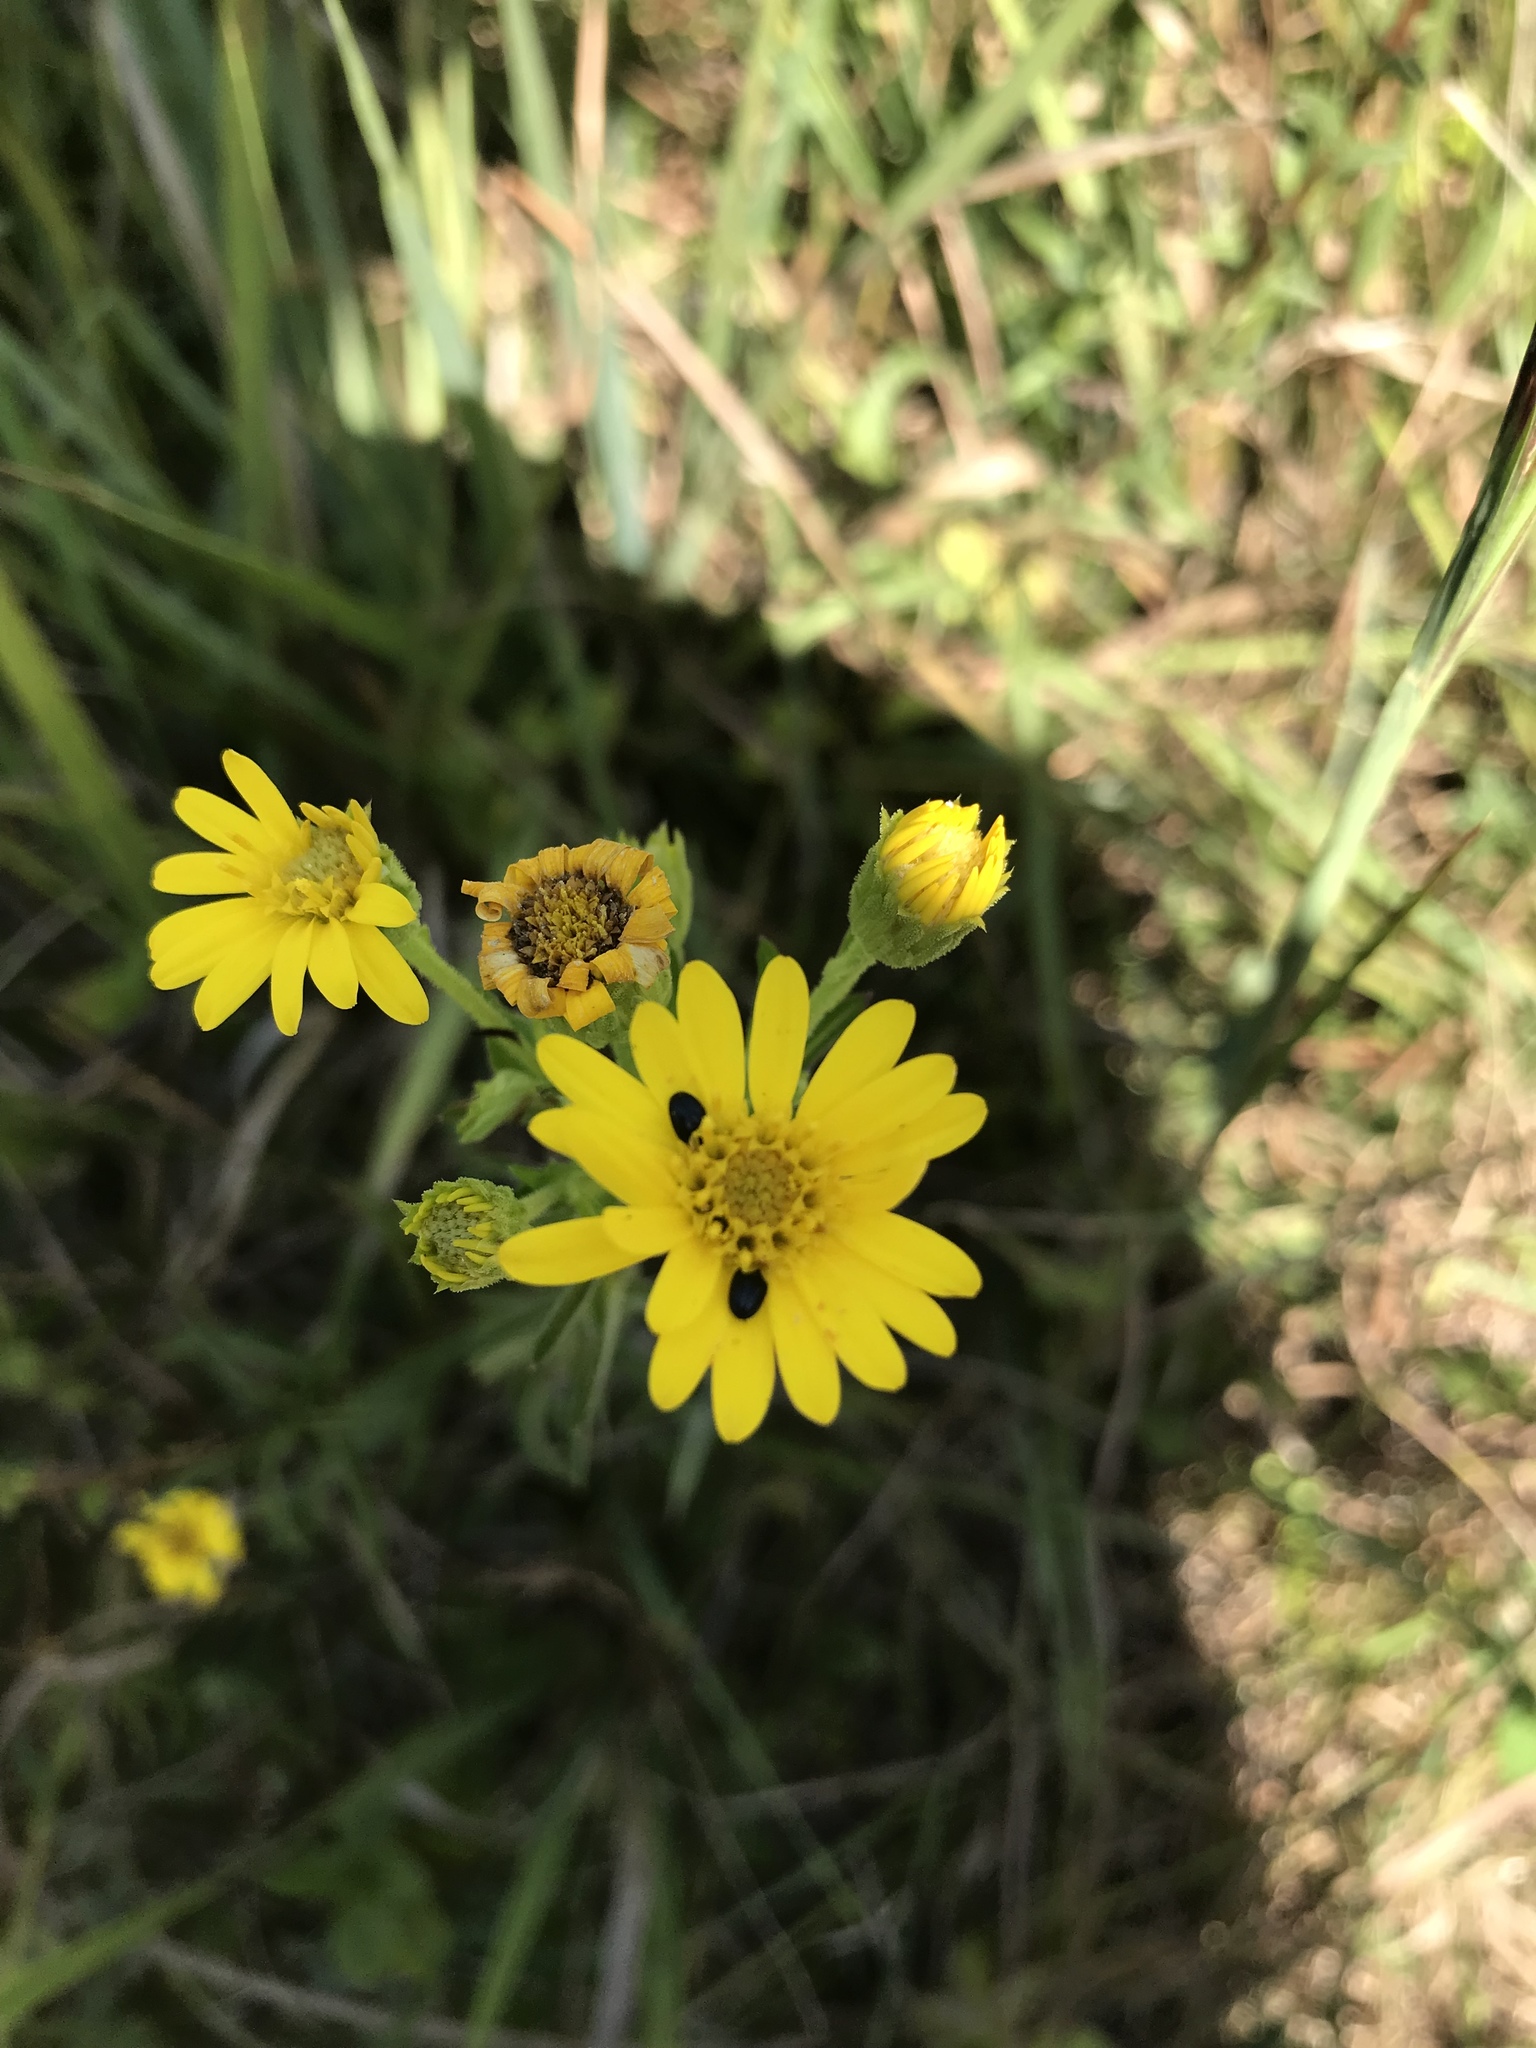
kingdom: Plantae
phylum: Tracheophyta
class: Magnoliopsida
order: Asterales
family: Asteraceae
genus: Chrysopsis
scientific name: Chrysopsis mariana
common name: Maryland golden-aster
